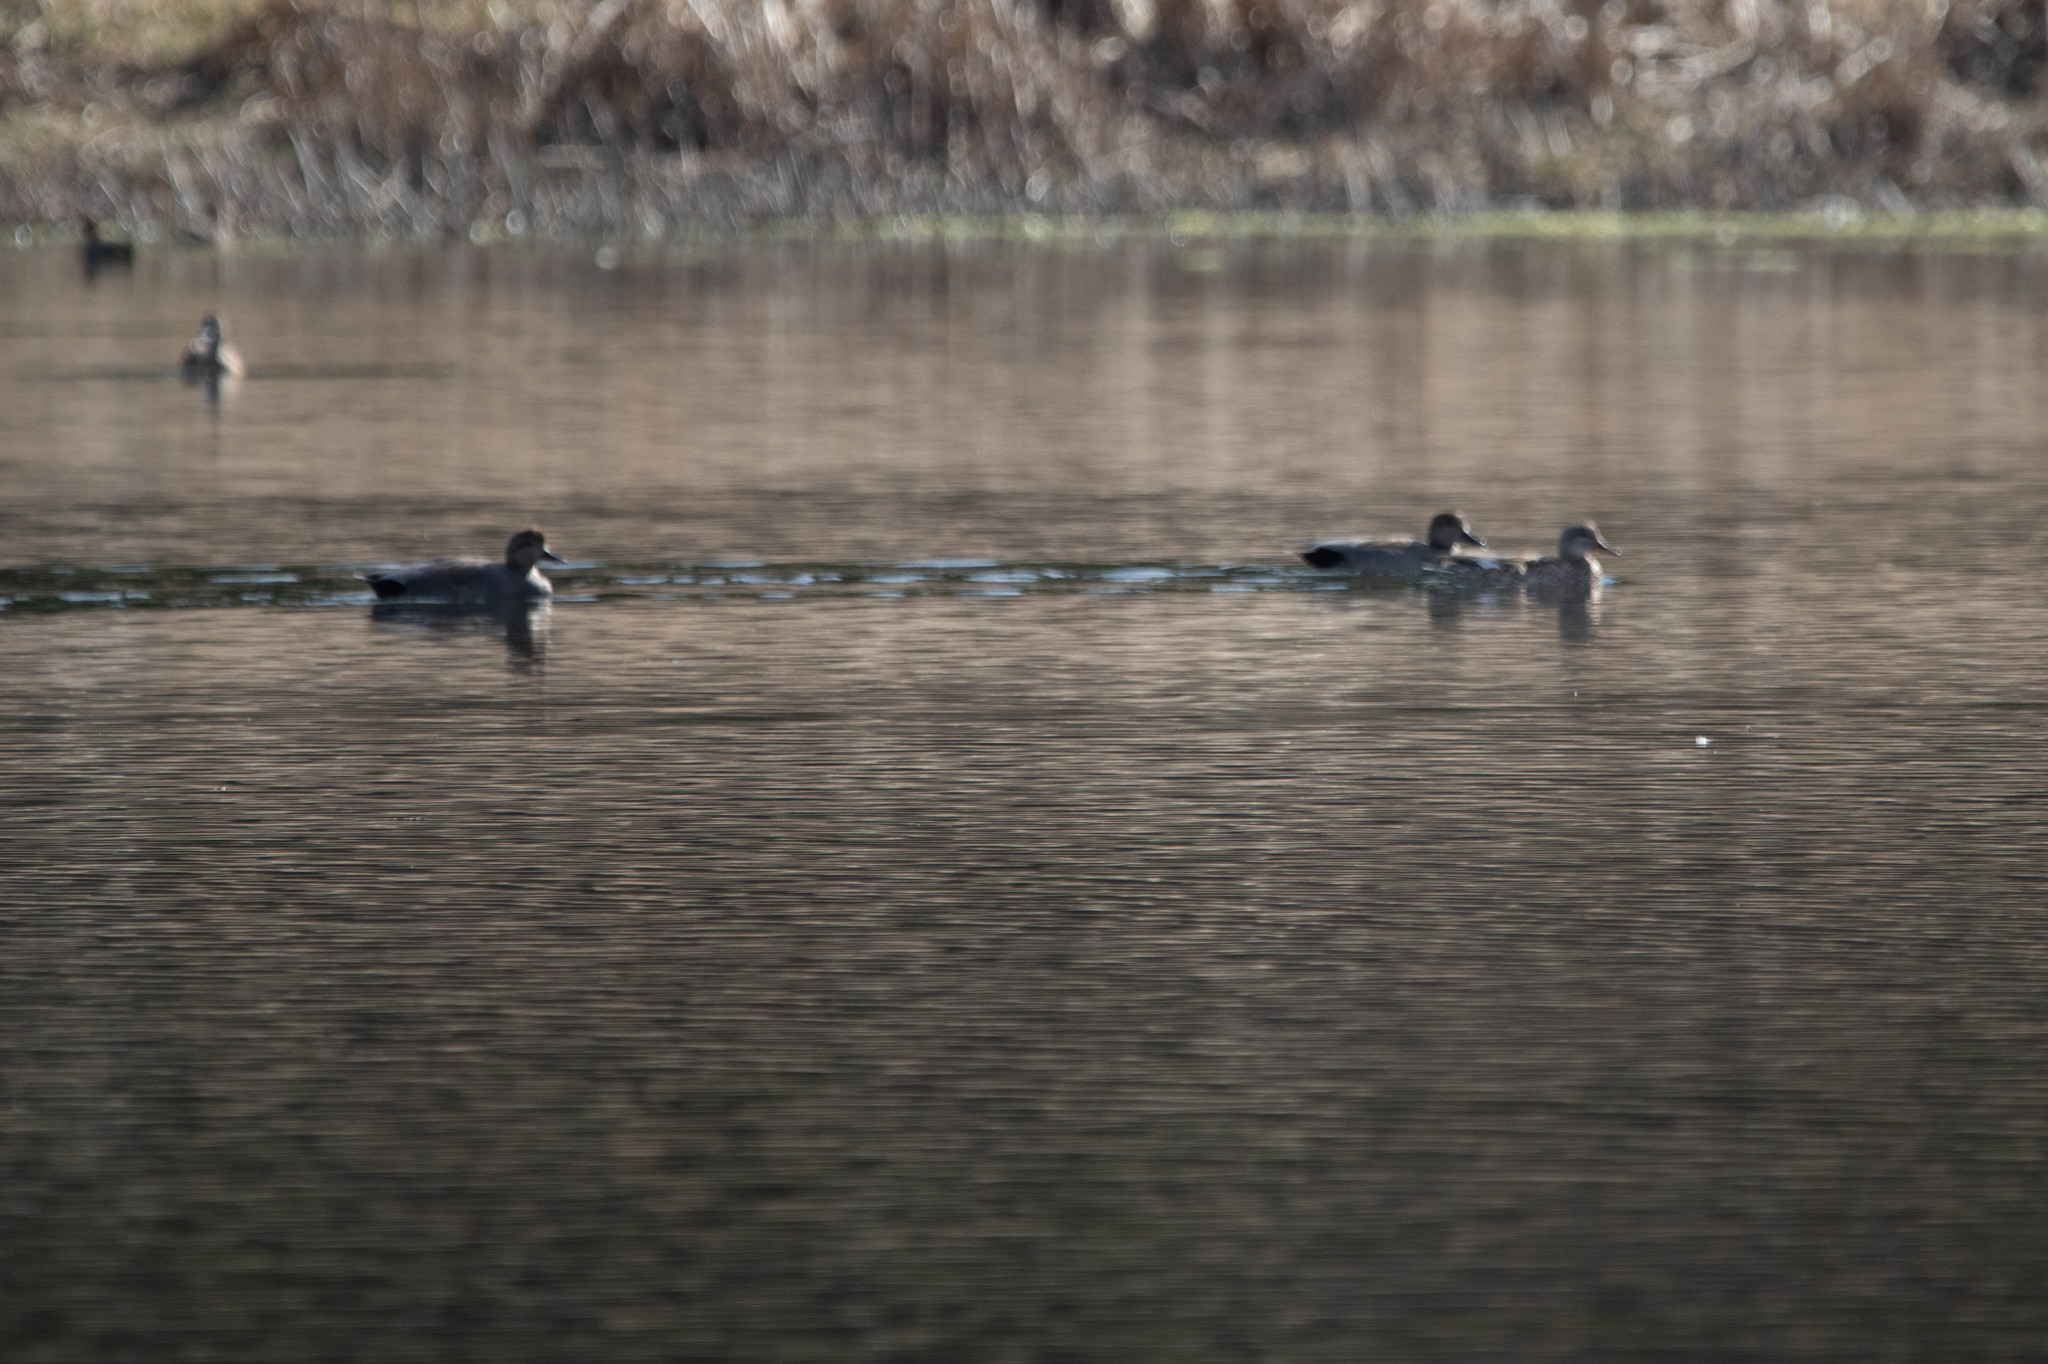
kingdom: Animalia
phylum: Chordata
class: Aves
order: Anseriformes
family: Anatidae
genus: Mareca
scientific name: Mareca strepera
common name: Gadwall
